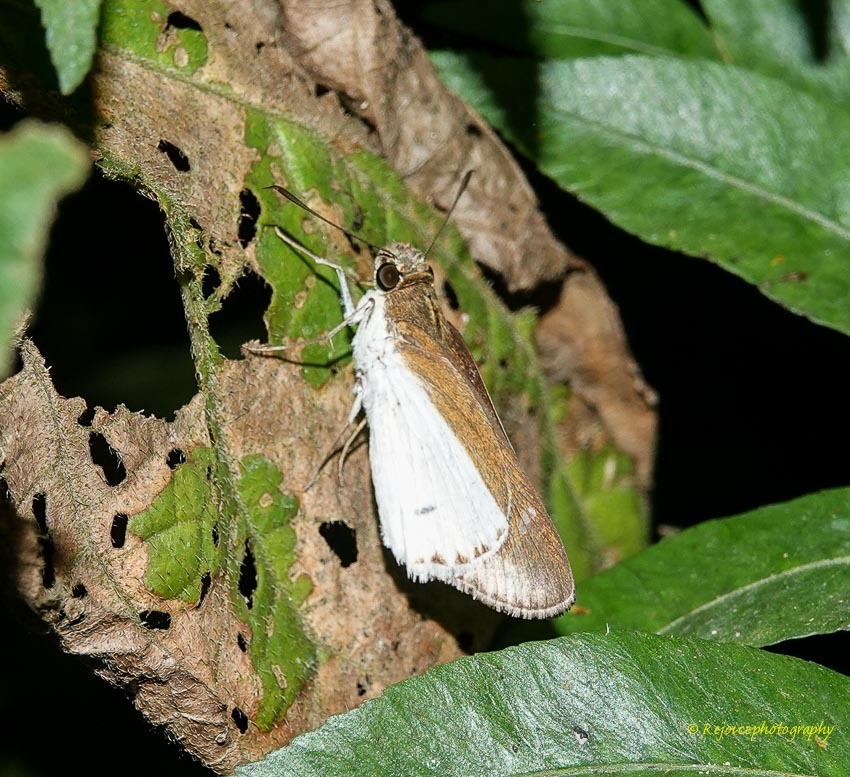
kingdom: Animalia
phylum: Arthropoda
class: Insecta
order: Lepidoptera
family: Hesperiidae
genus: Iton
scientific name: Iton semamora
